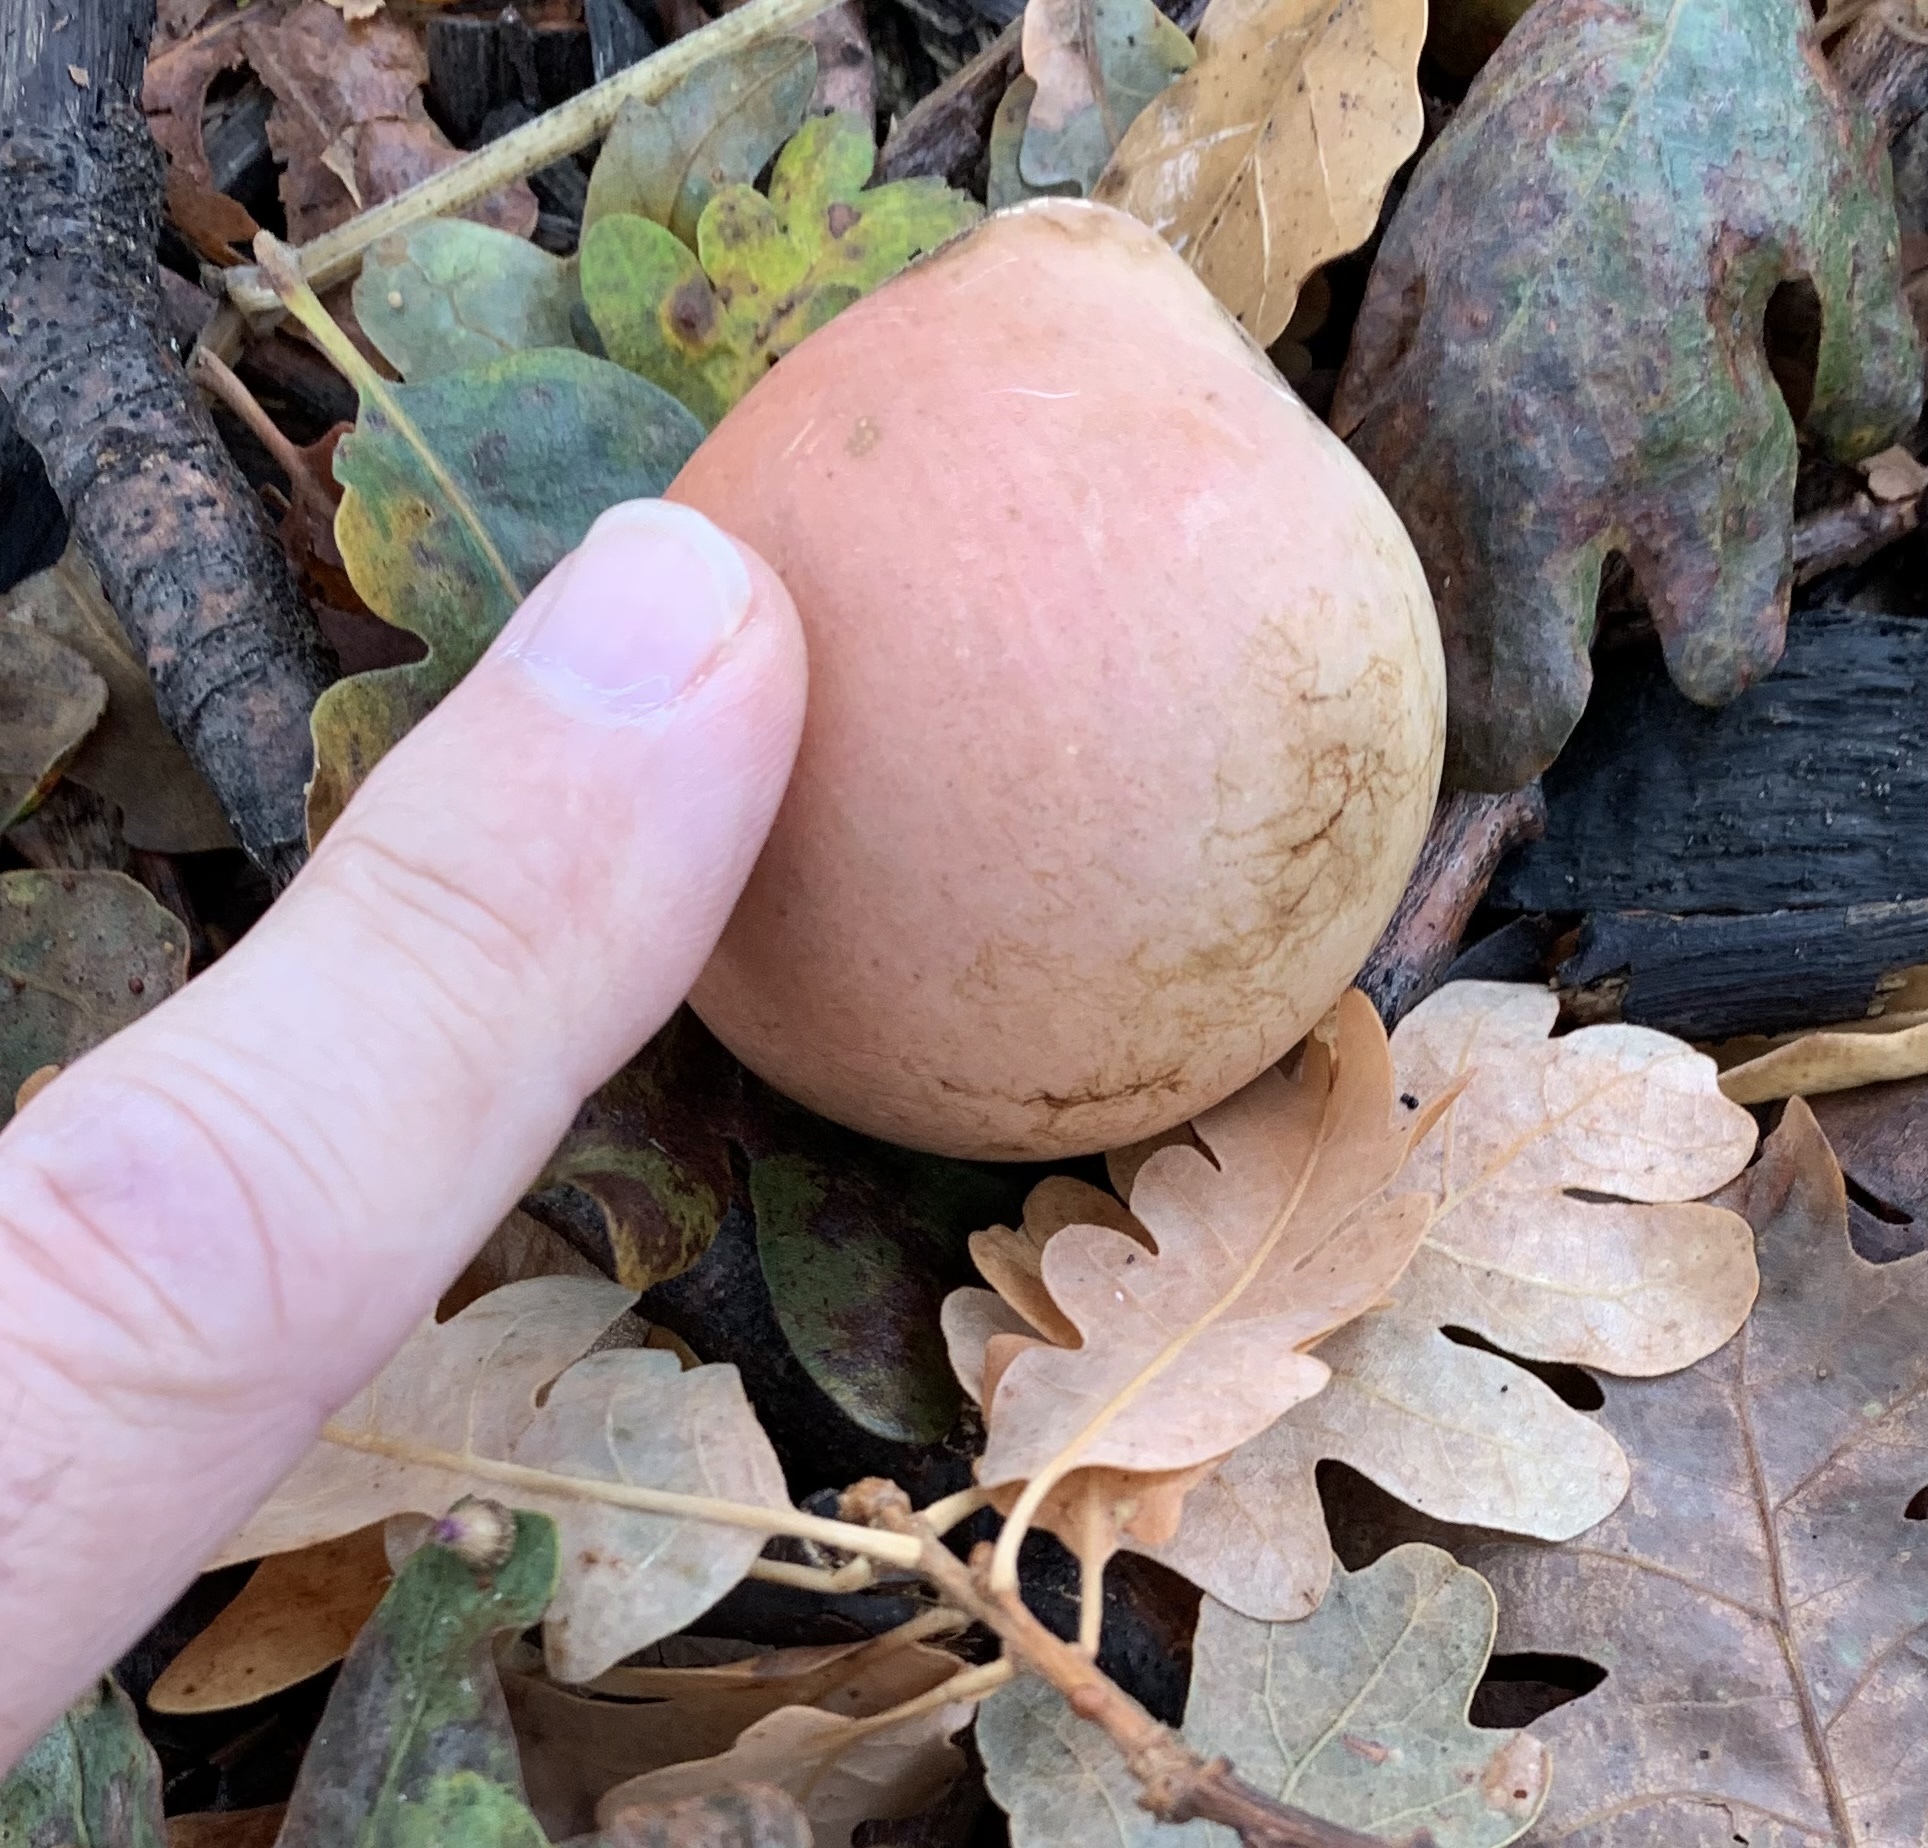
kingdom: Animalia
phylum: Arthropoda
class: Insecta
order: Hymenoptera
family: Cynipidae
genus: Andricus
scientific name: Andricus quercuscalifornicus
